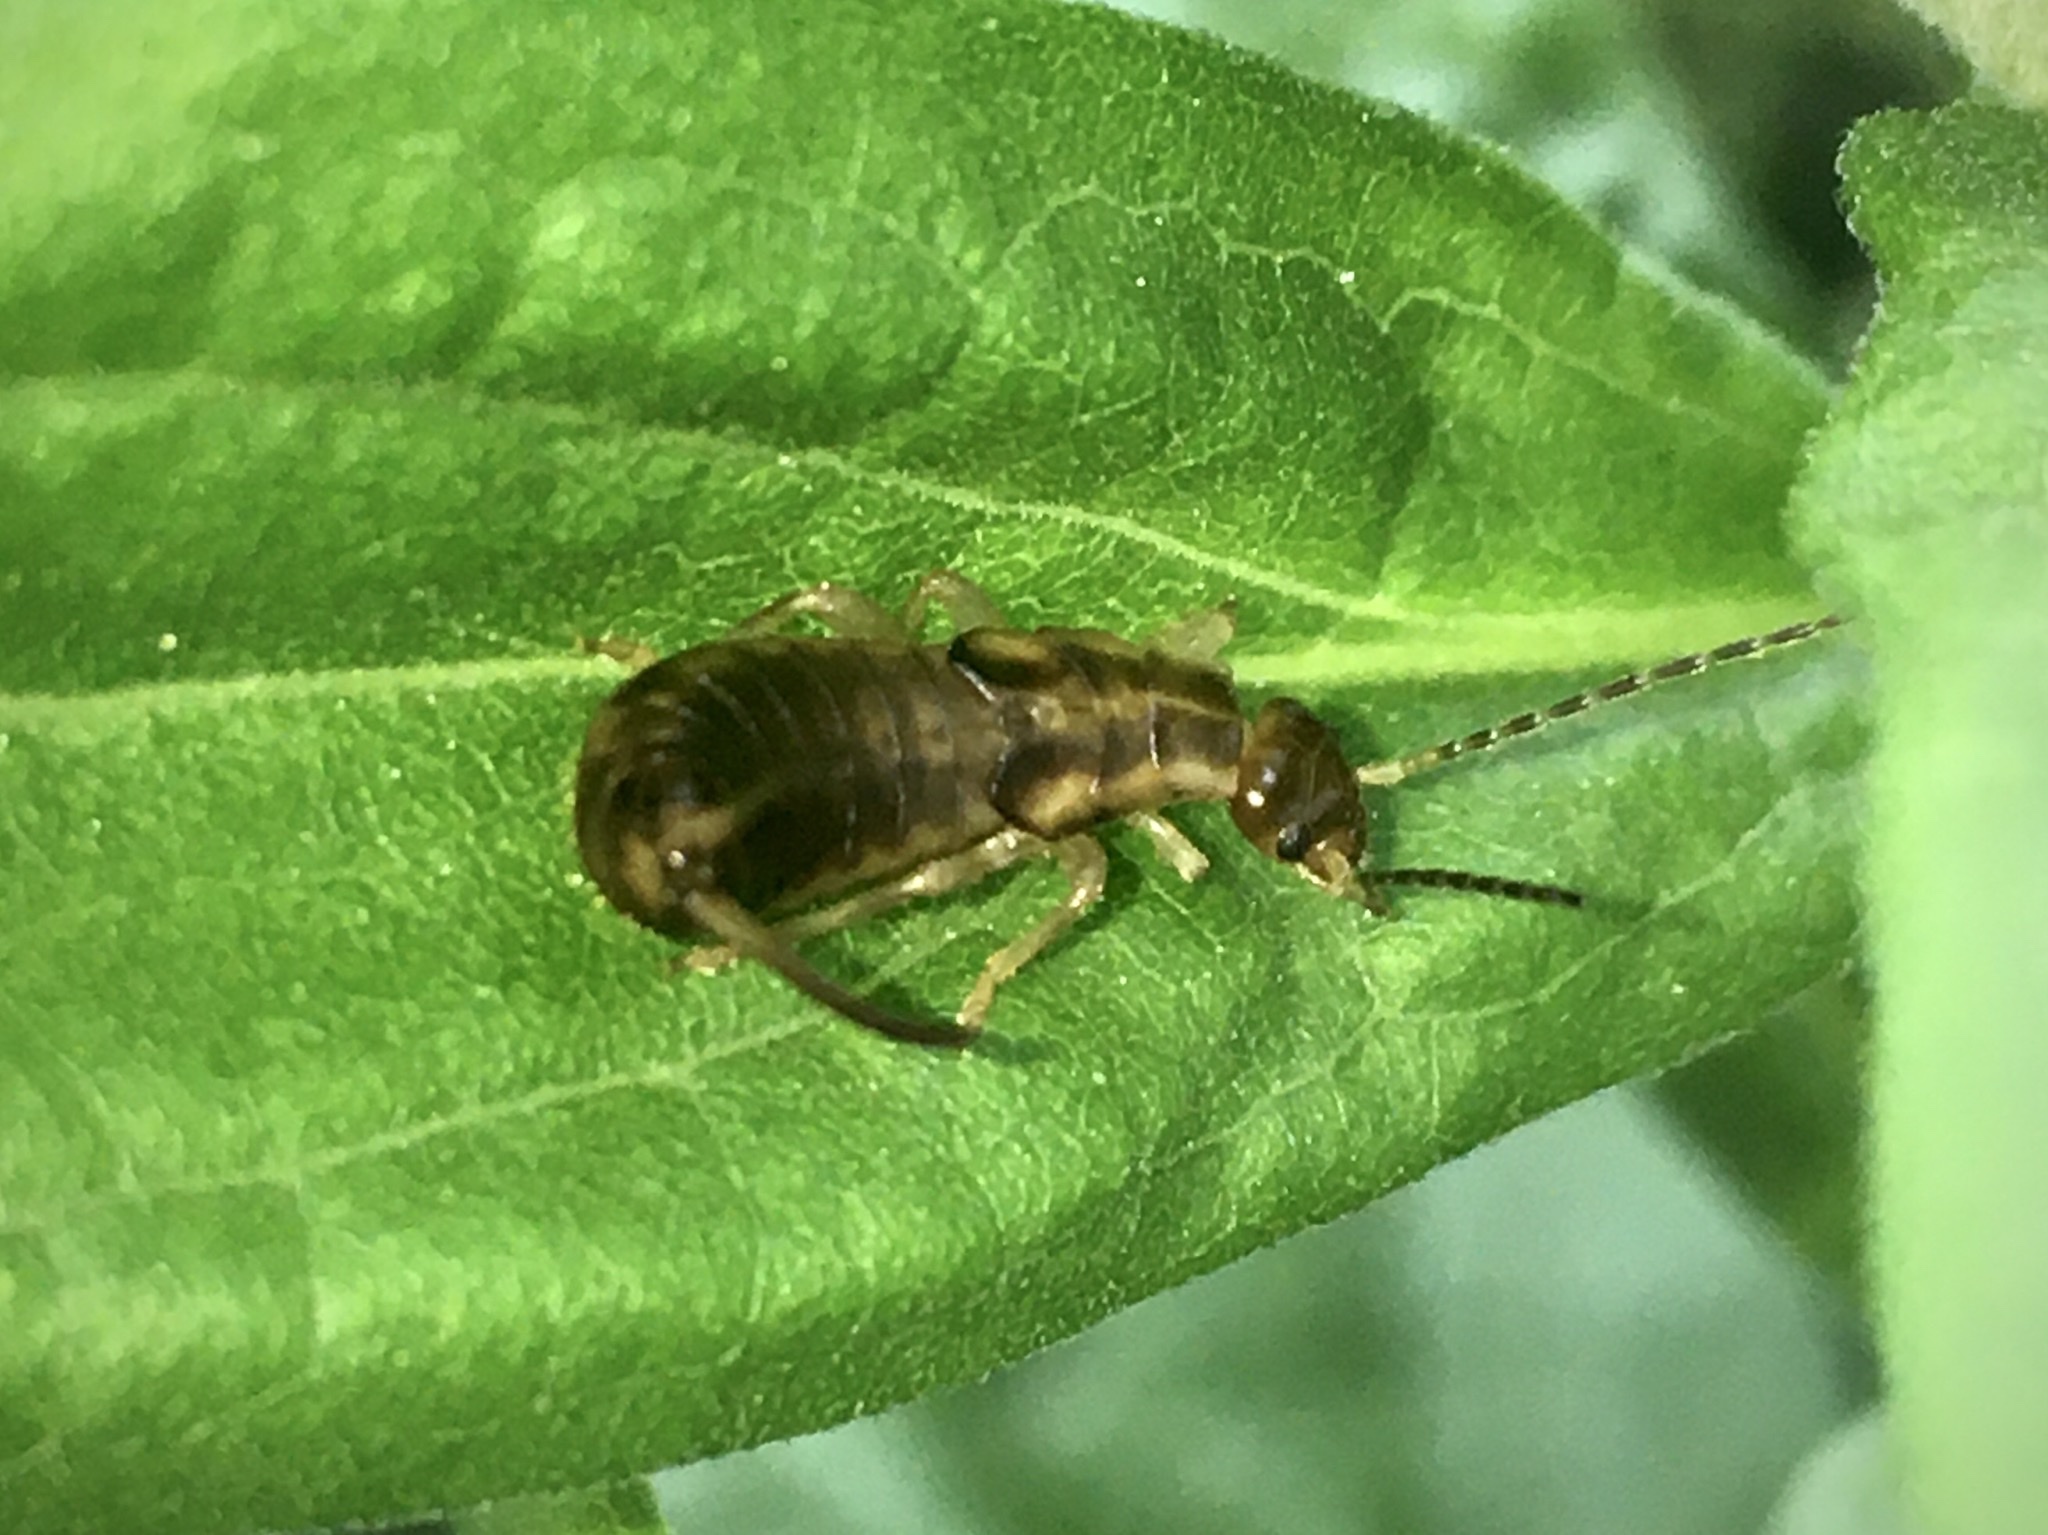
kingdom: Animalia
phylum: Arthropoda
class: Insecta
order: Dermaptera
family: Forficulidae
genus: Forficula
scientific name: Forficula
